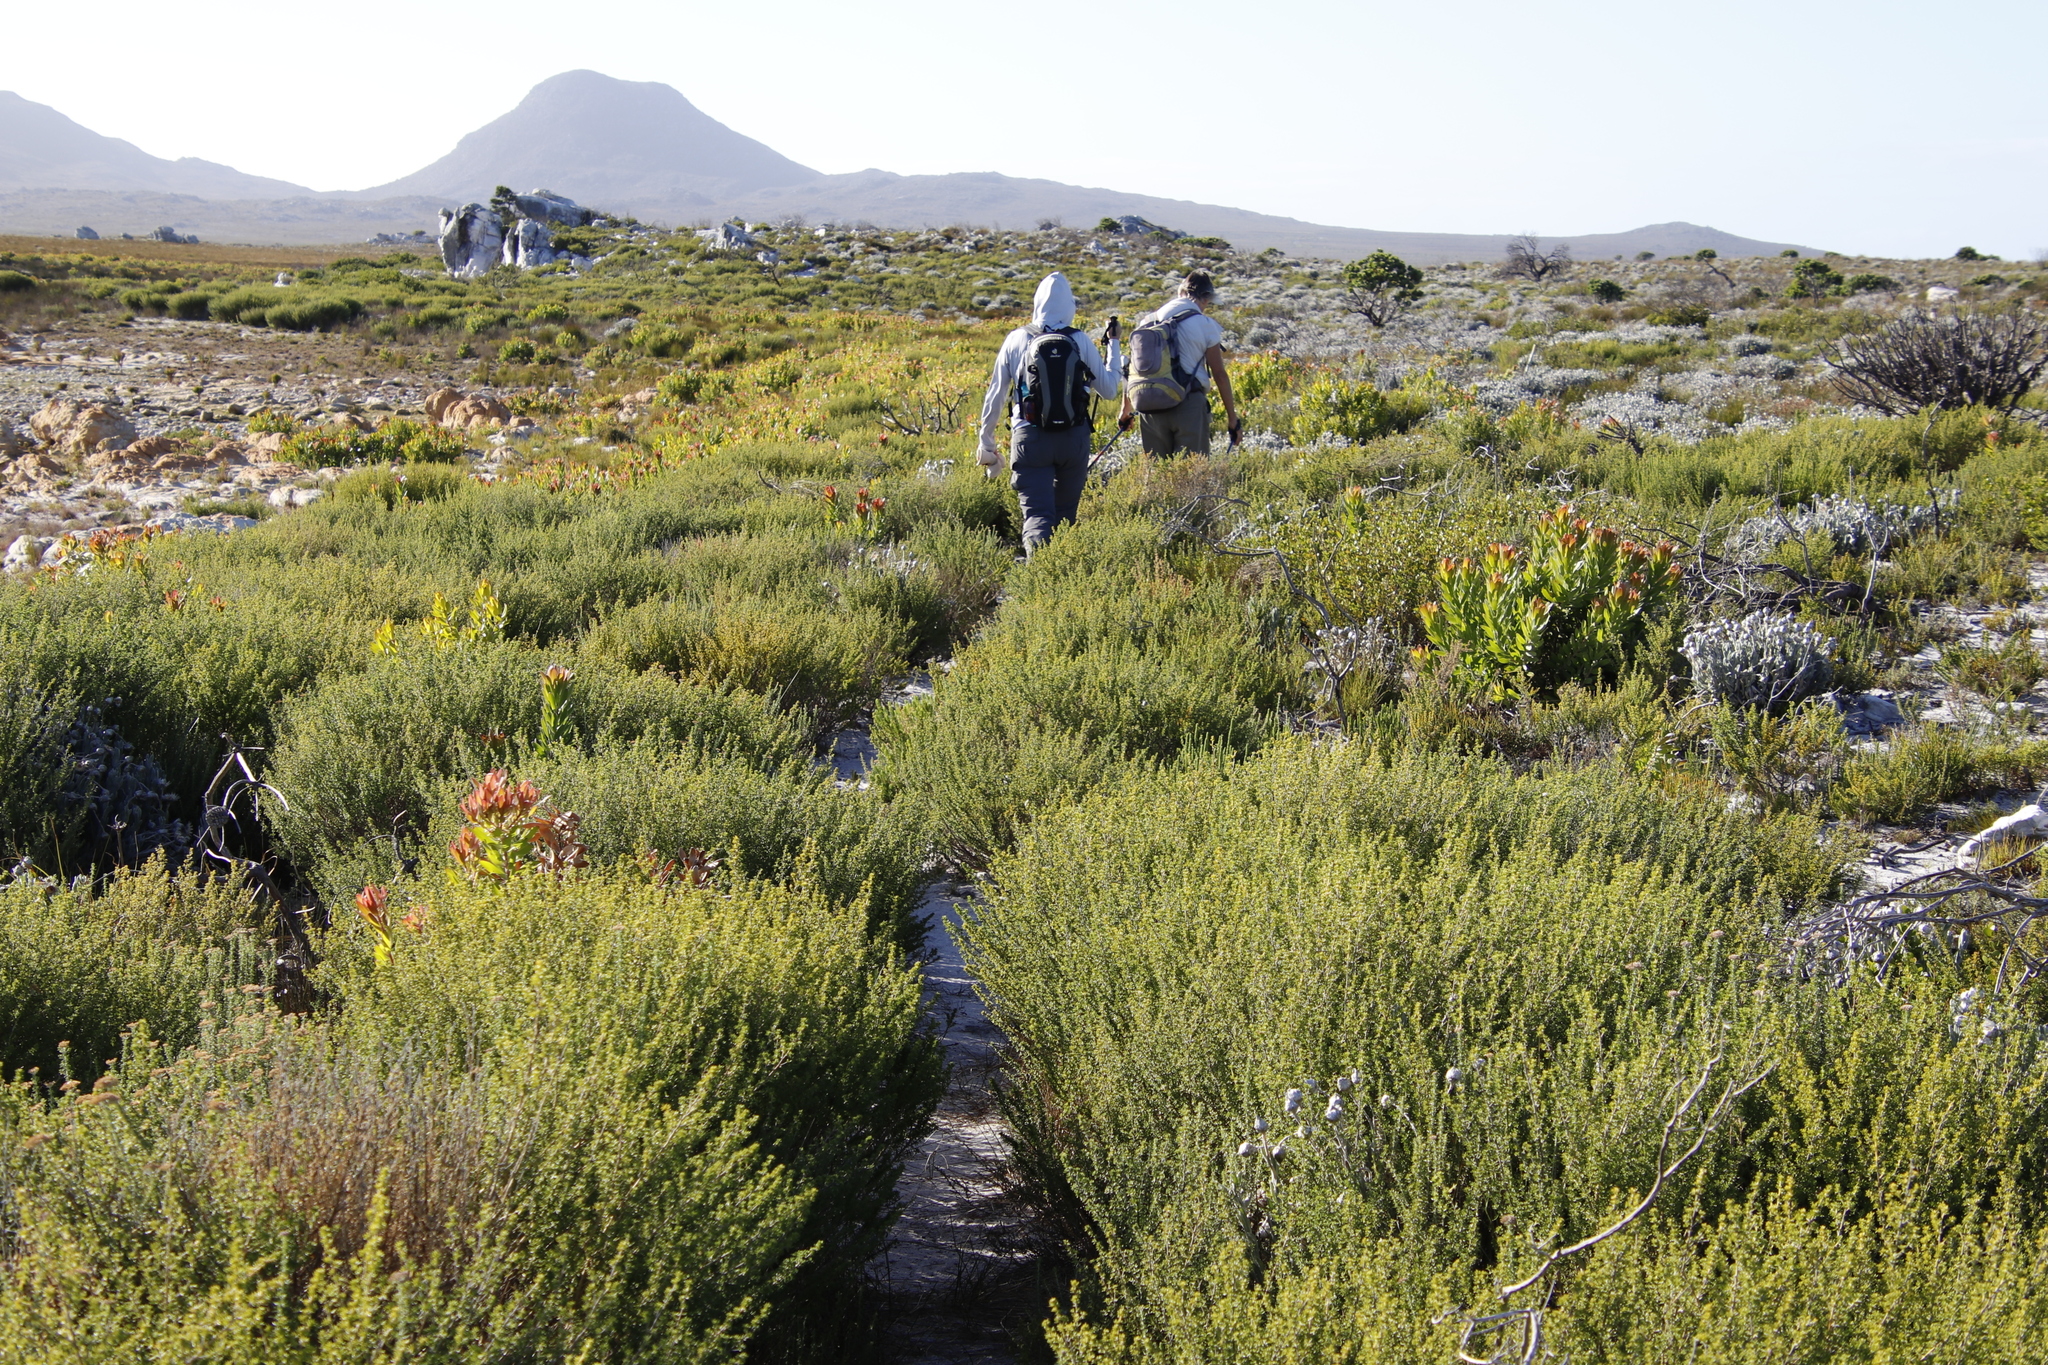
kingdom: Plantae
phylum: Tracheophyta
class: Magnoliopsida
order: Fabales
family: Fabaceae
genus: Aspalathus
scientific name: Aspalathus carnosa
